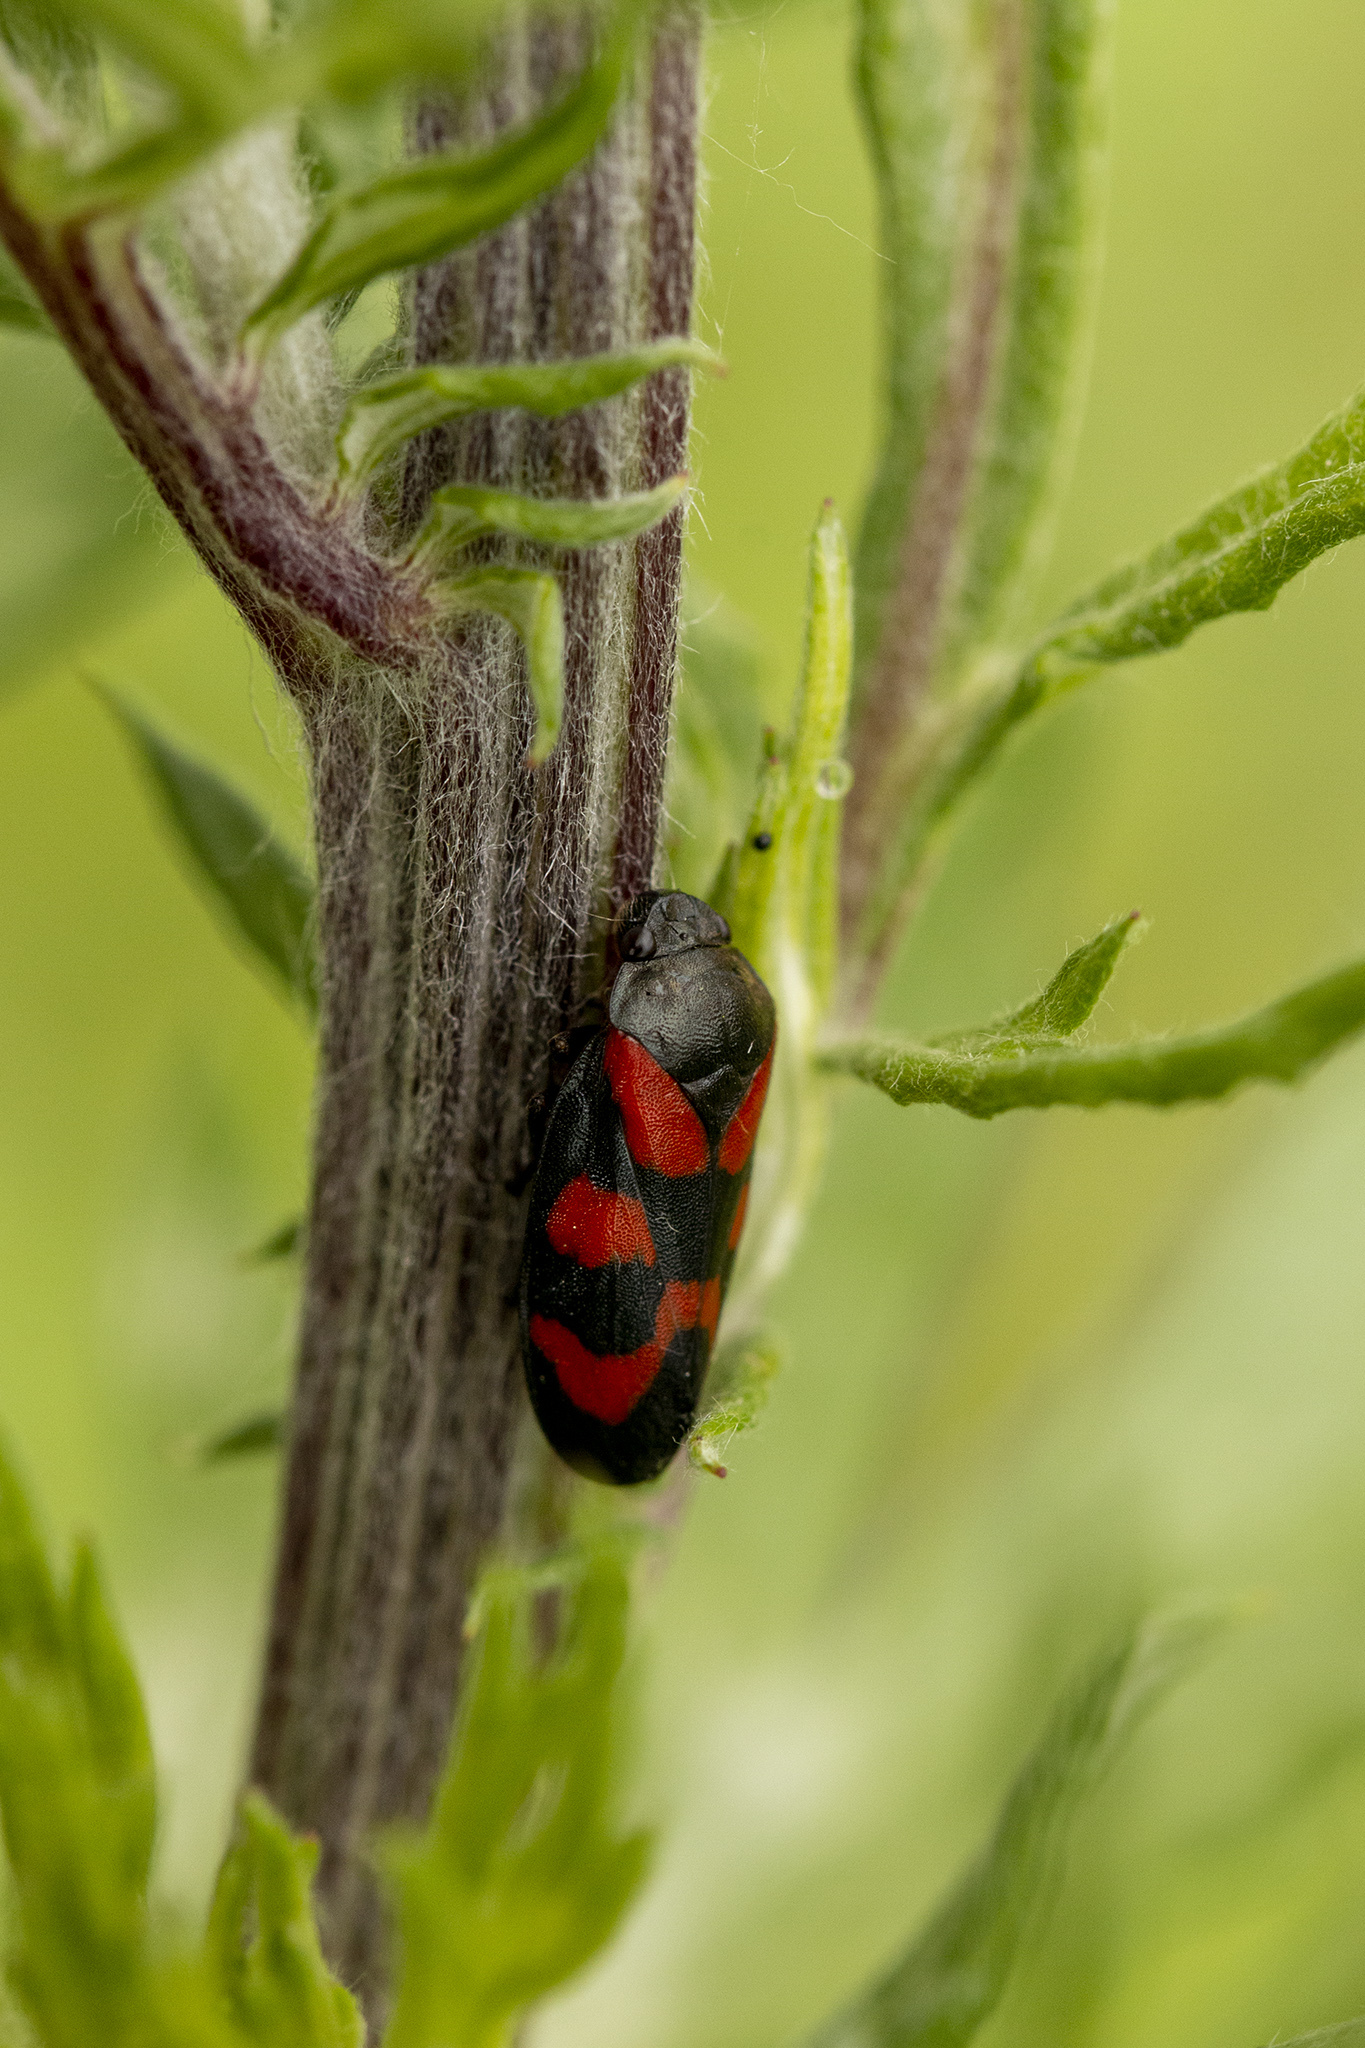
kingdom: Animalia
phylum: Arthropoda
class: Insecta
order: Hemiptera
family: Cercopidae
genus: Cercopis
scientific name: Cercopis vulnerata
